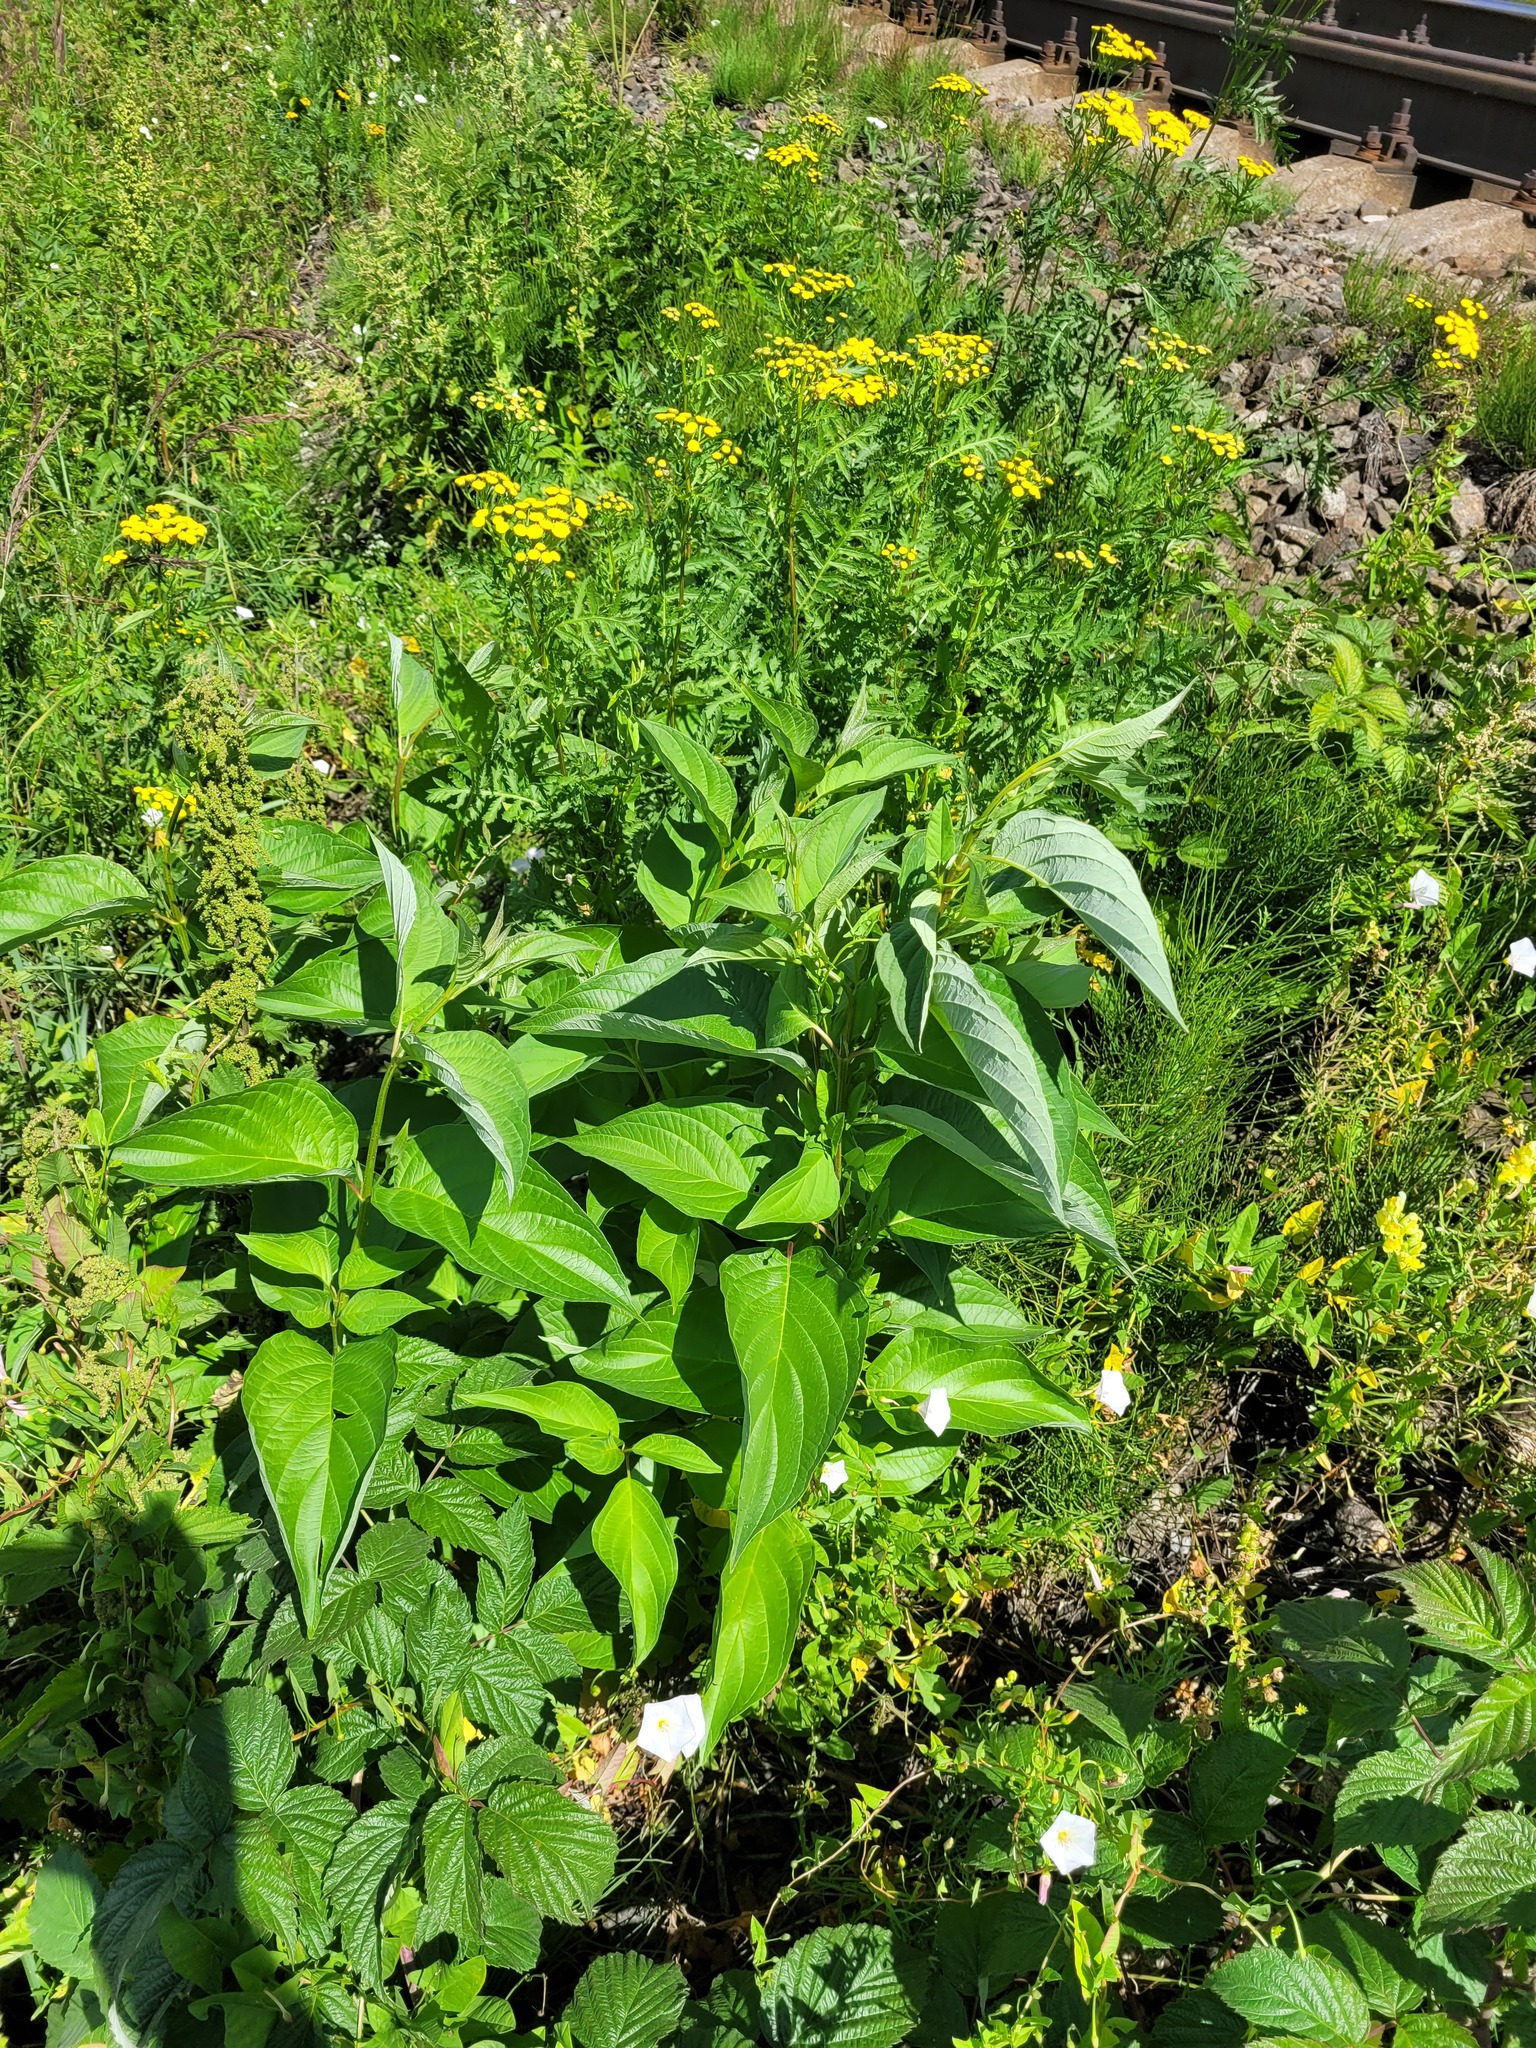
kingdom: Plantae
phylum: Tracheophyta
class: Magnoliopsida
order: Cornales
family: Cornaceae
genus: Cornus
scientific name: Cornus alba
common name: White dogwood
